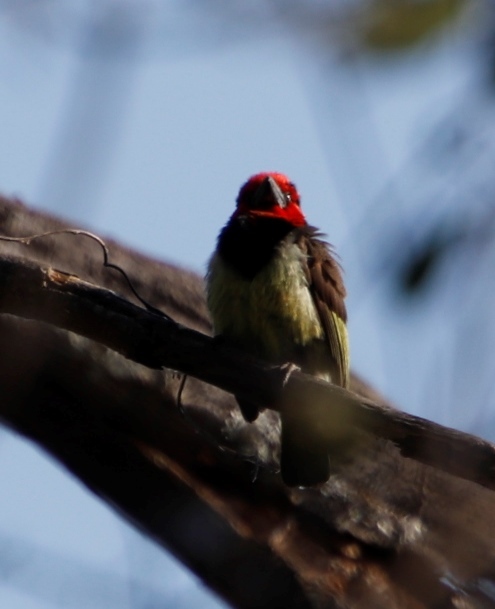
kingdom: Animalia
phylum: Chordata
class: Aves
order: Piciformes
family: Lybiidae
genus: Lybius
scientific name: Lybius torquatus
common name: Black-collared barbet
